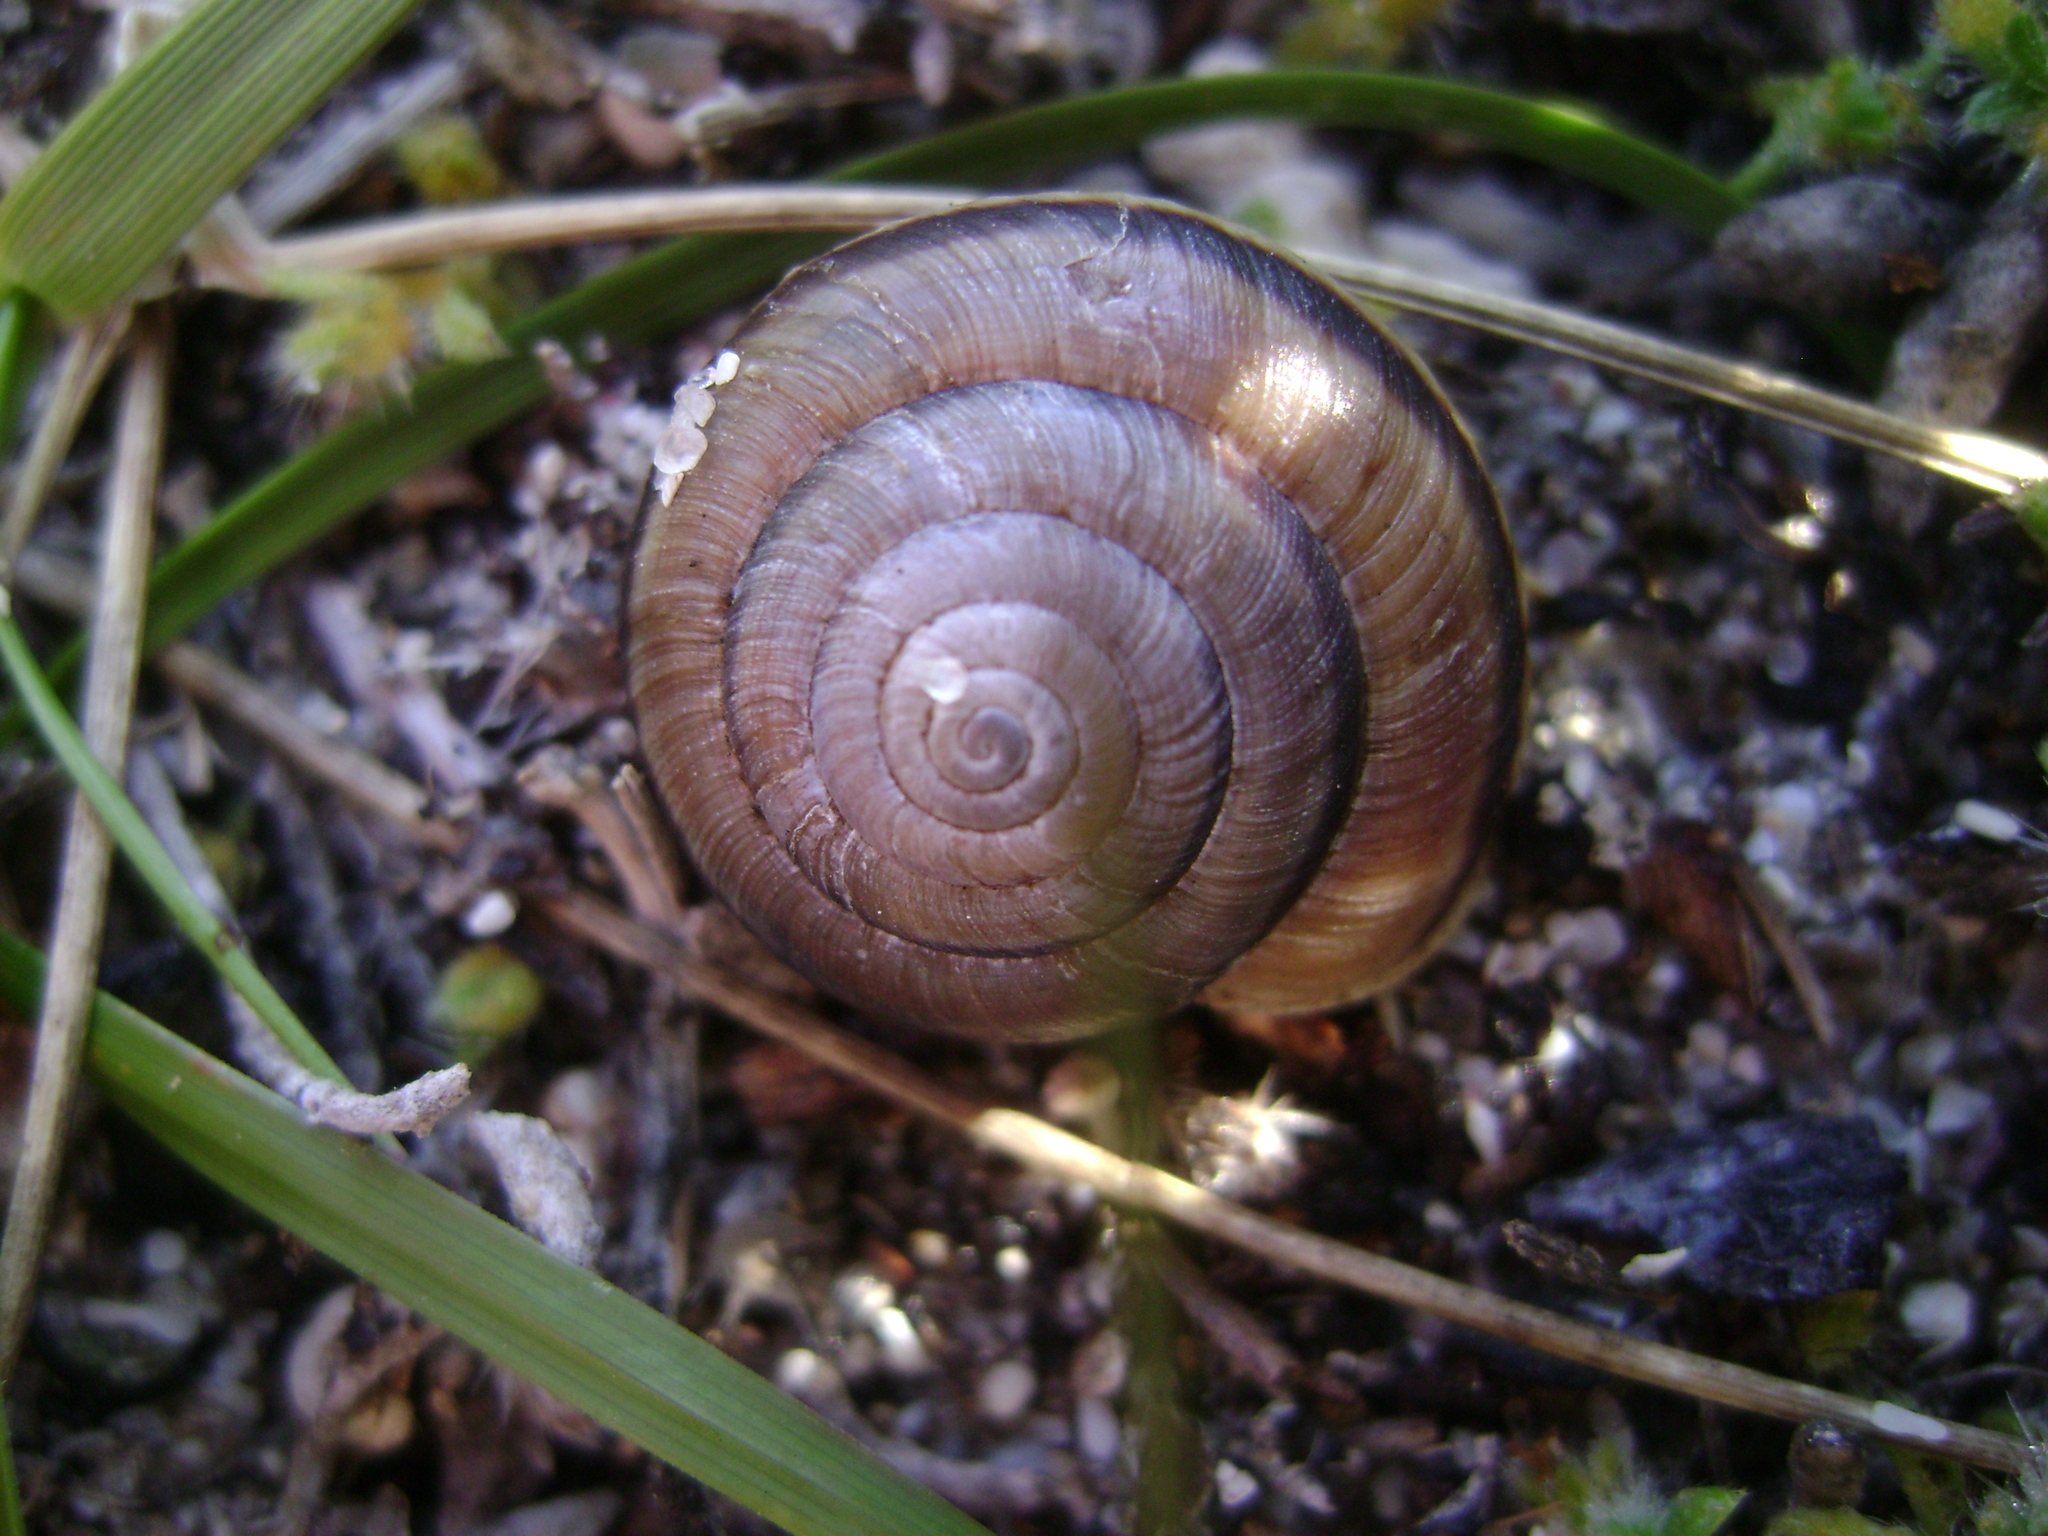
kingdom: Animalia
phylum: Mollusca
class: Gastropoda
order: Stylommatophora
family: Xanthonychidae
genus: Helminthoglypta
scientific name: Helminthoglypta ayresiana
